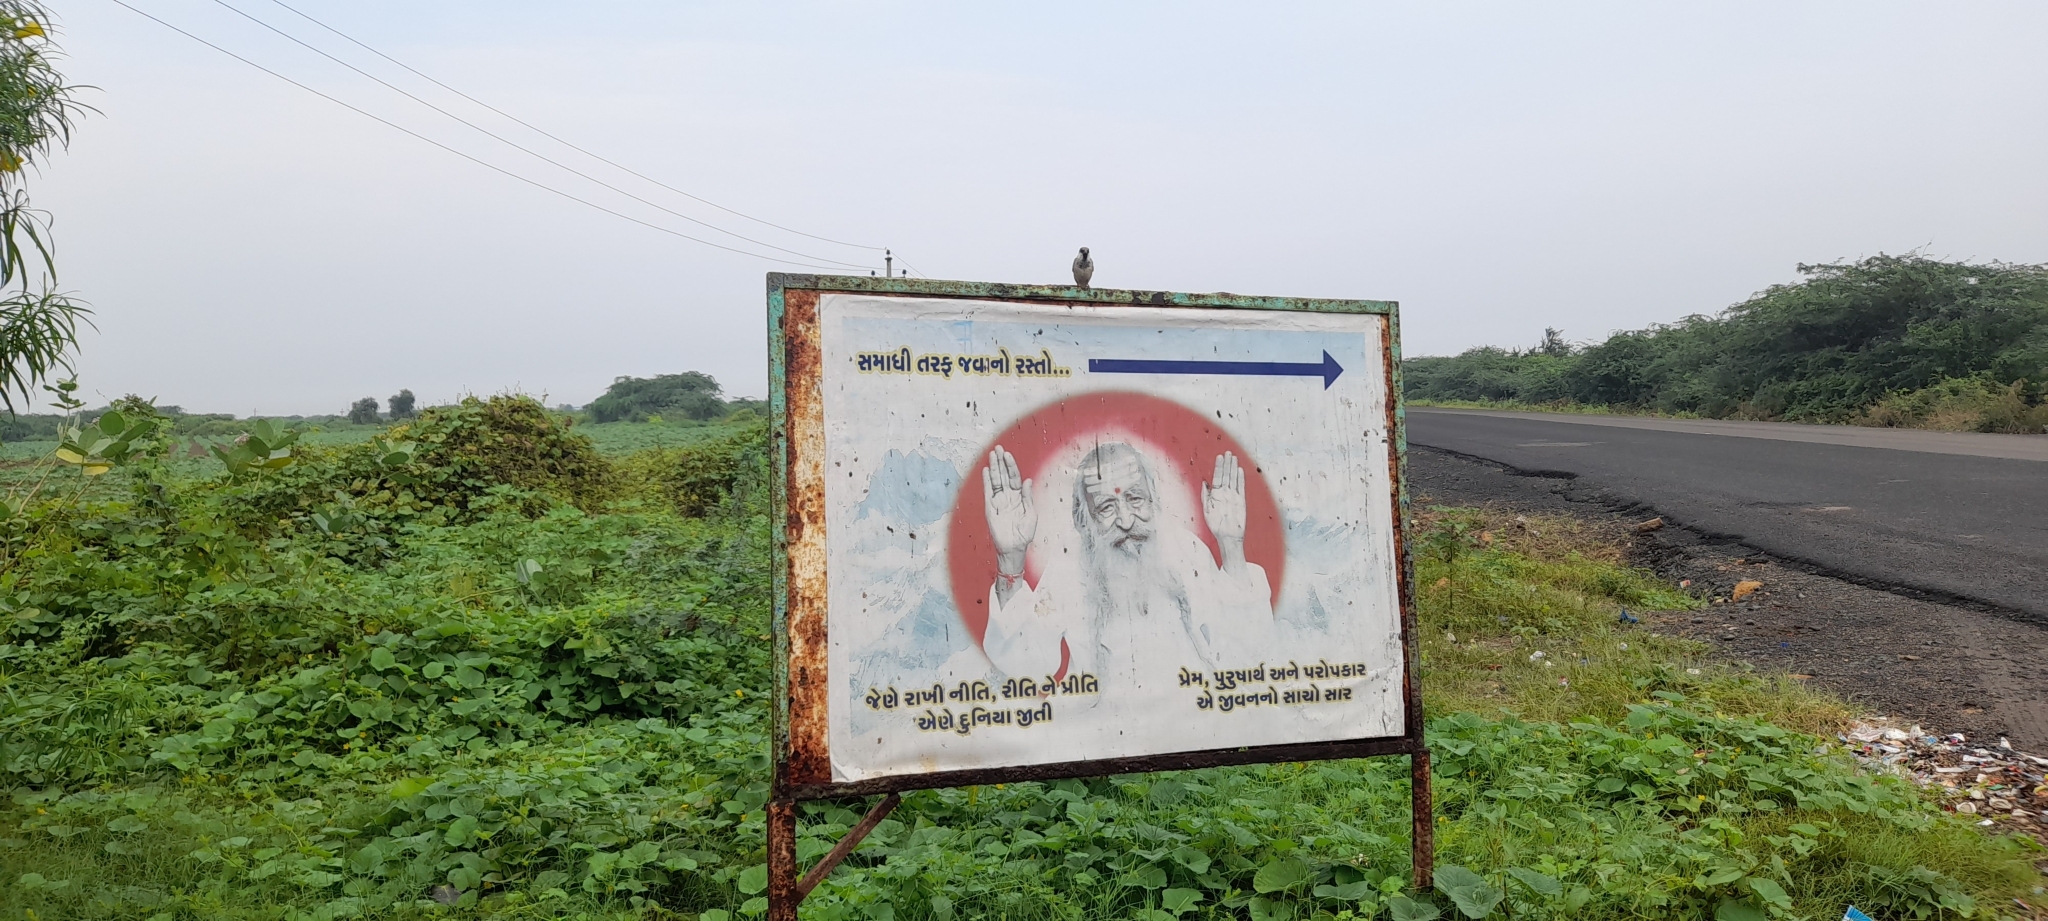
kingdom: Animalia
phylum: Chordata
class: Aves
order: Passeriformes
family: Sturnidae
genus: Pastor
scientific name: Pastor roseus
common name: Rosy starling
